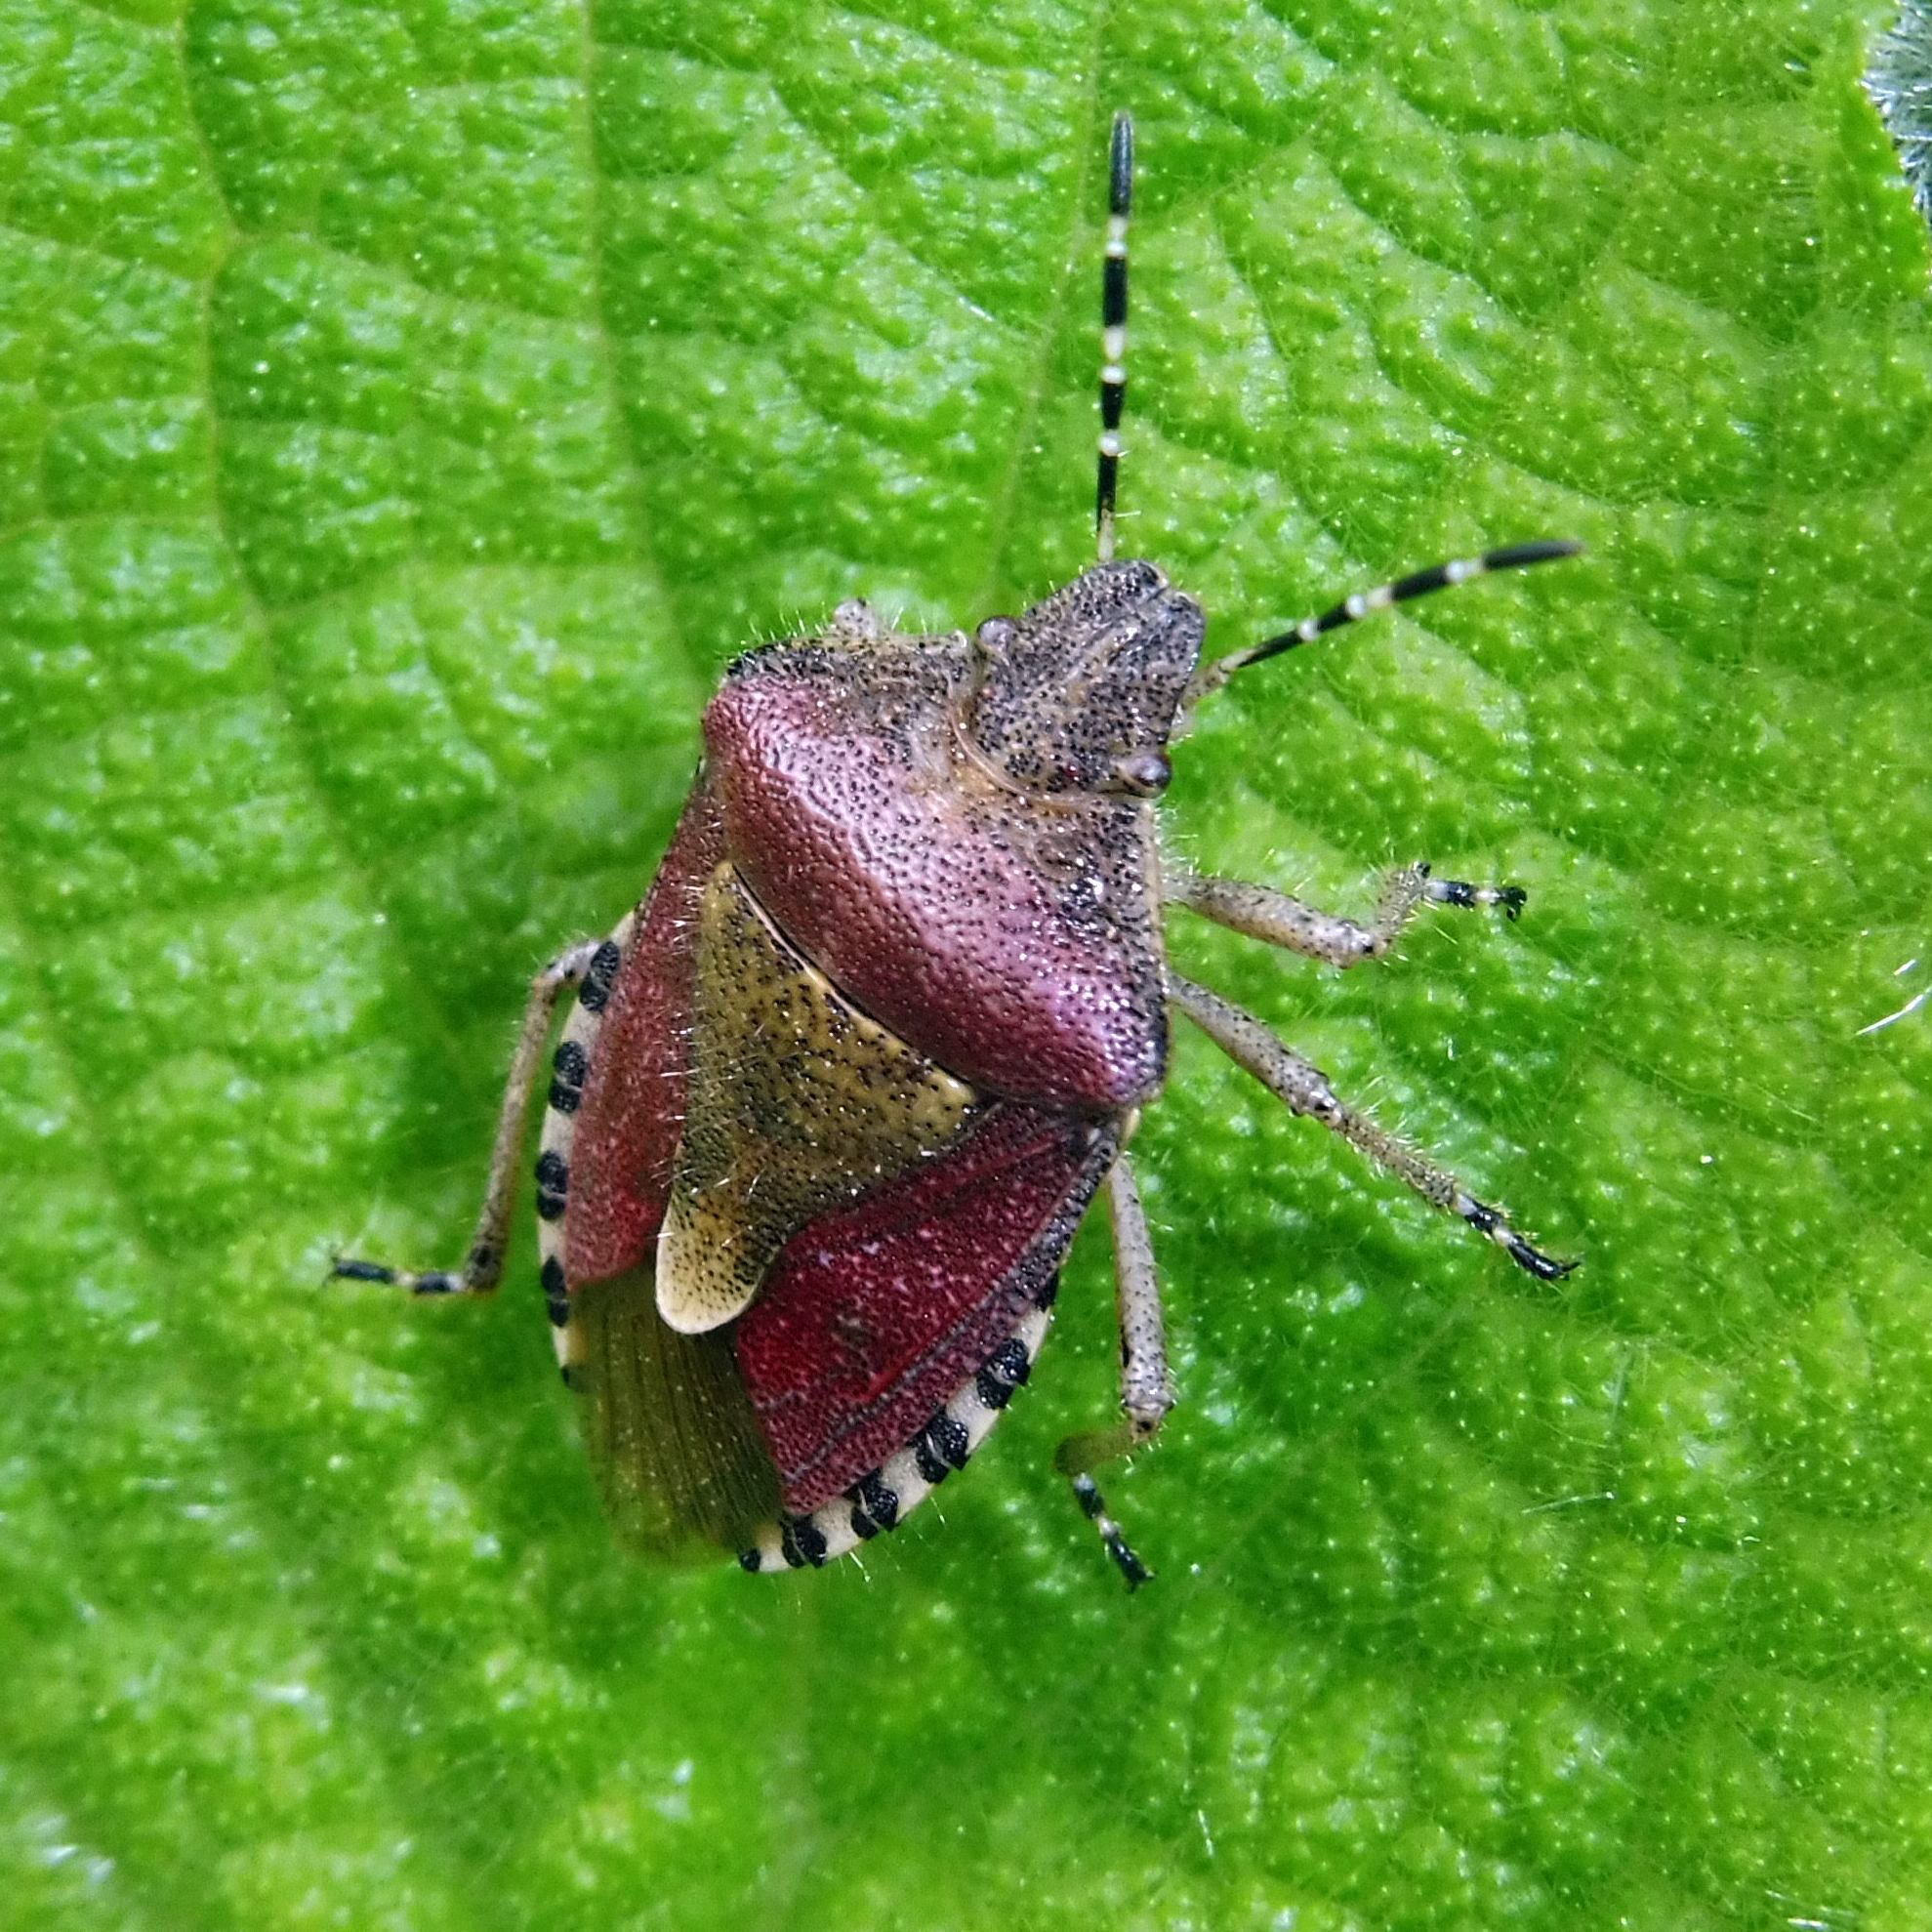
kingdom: Animalia
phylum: Arthropoda
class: Insecta
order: Hemiptera
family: Pentatomidae
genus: Dolycoris
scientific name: Dolycoris baccarum
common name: Sloe bug
